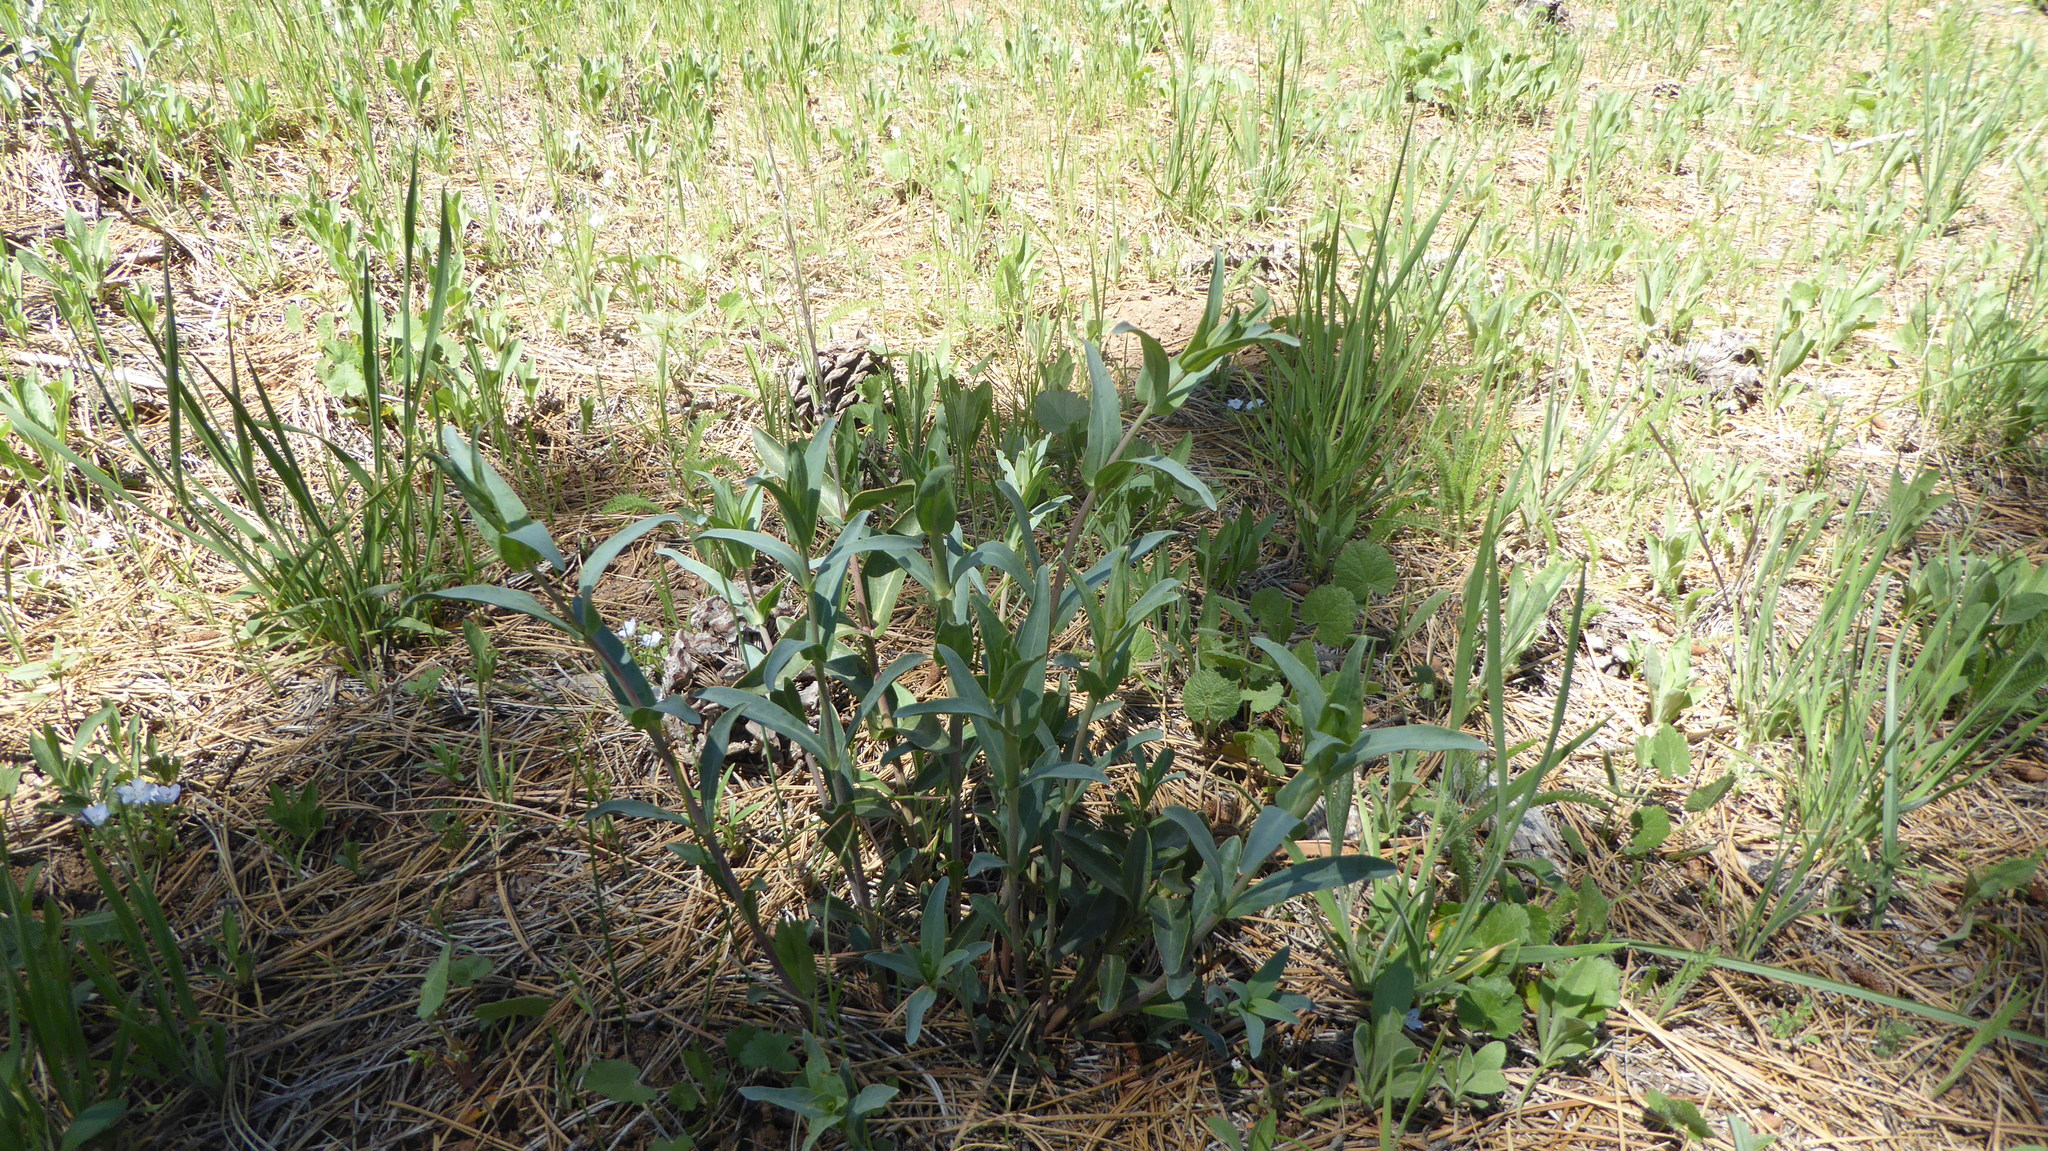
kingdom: Plantae
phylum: Tracheophyta
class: Magnoliopsida
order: Lamiales
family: Plantaginaceae
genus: Penstemon
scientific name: Penstemon centranthifolius
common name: Scarlet bugler
